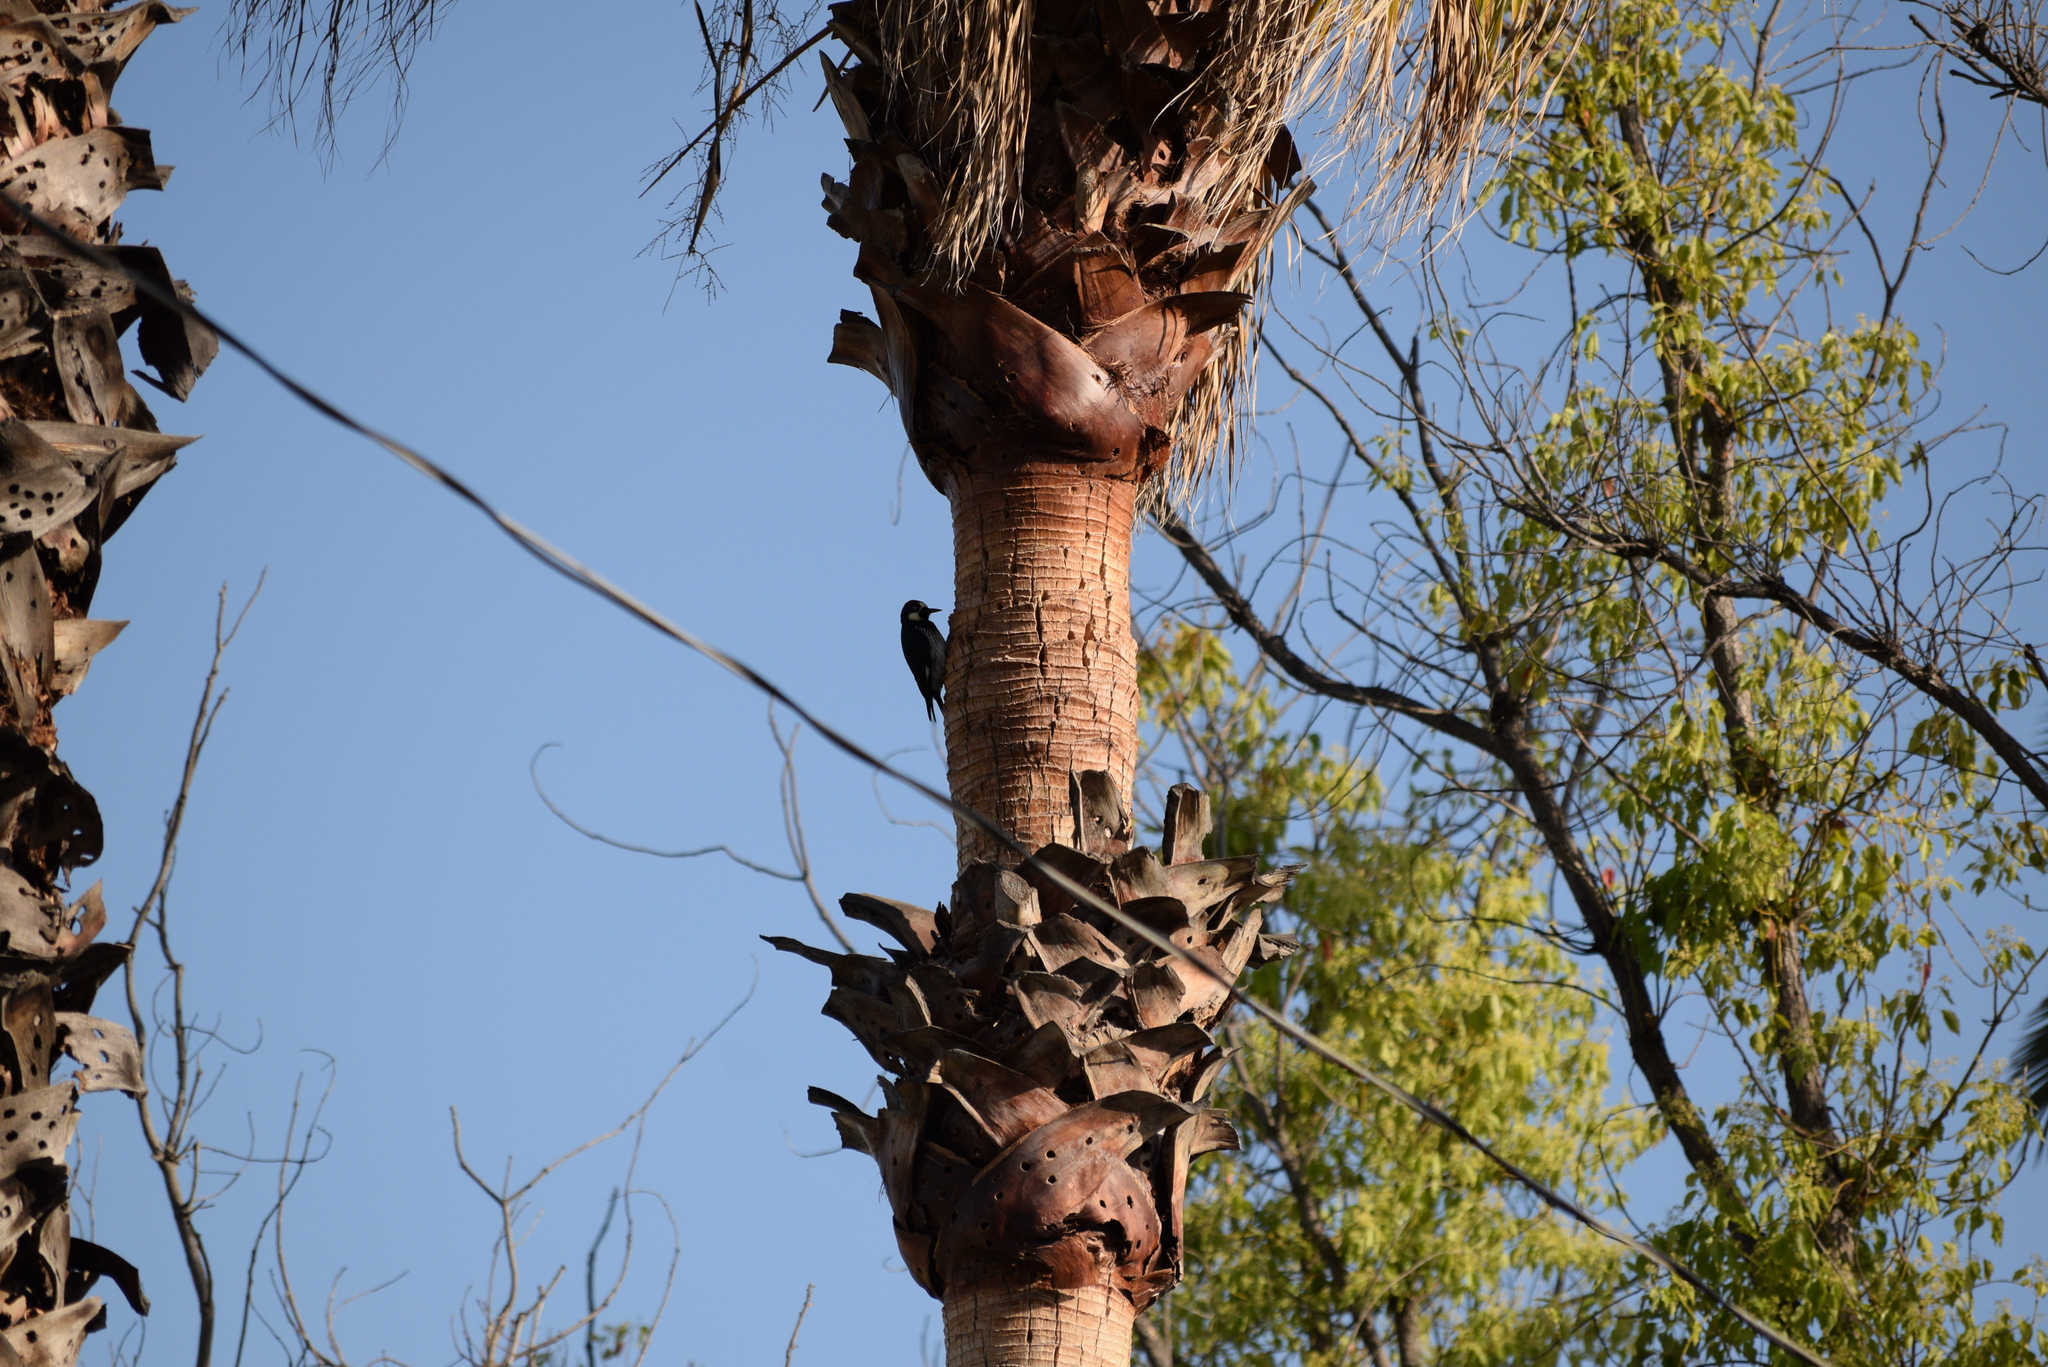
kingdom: Animalia
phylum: Chordata
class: Aves
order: Piciformes
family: Picidae
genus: Melanerpes
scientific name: Melanerpes formicivorus
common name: Acorn woodpecker
